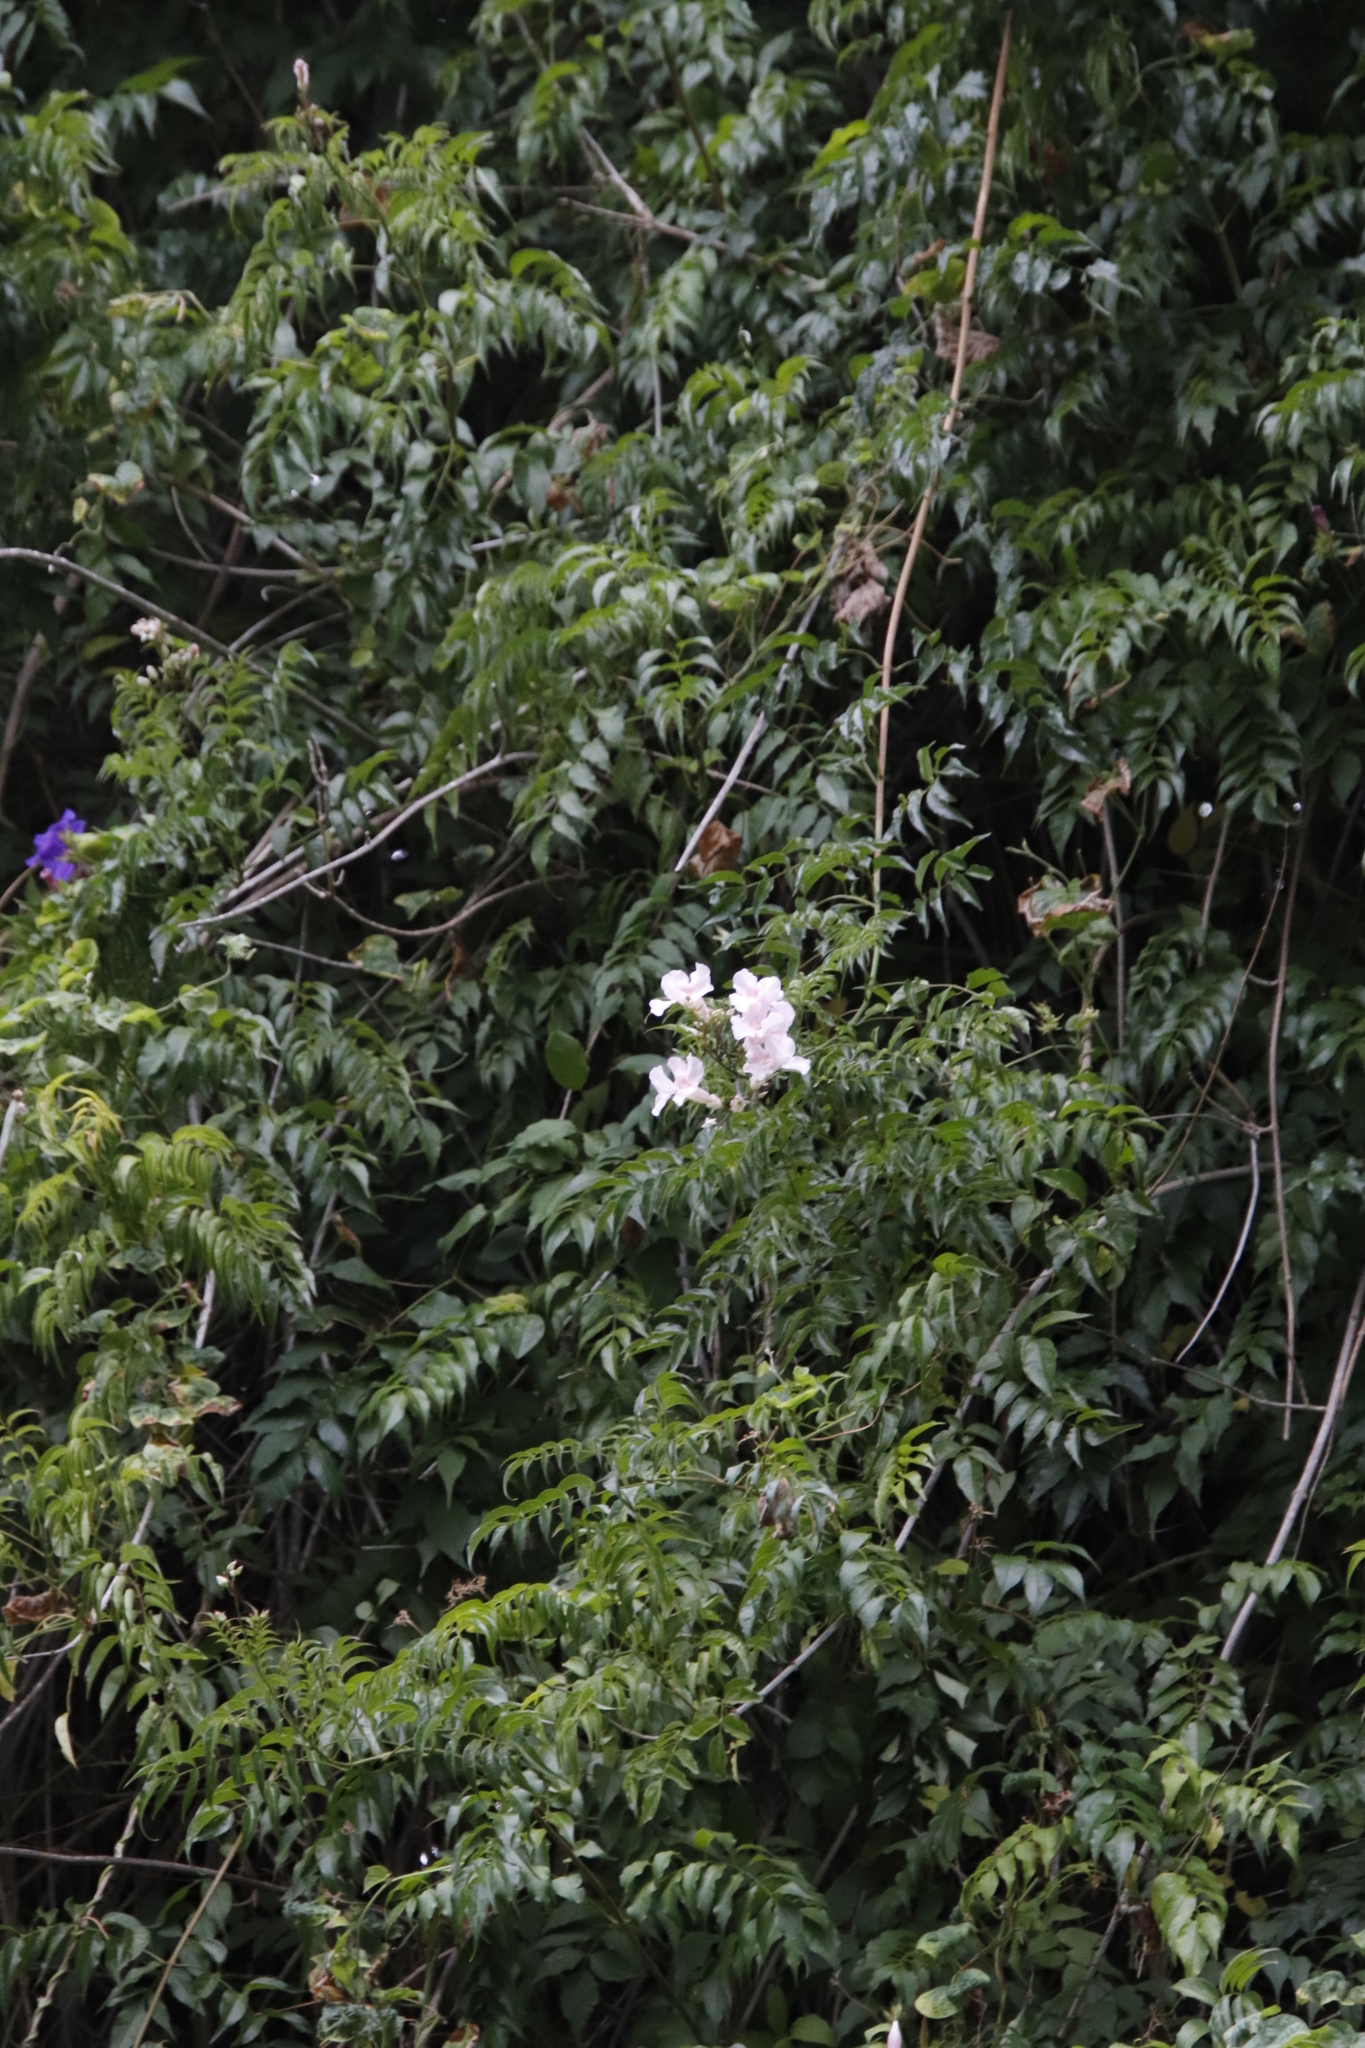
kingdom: Plantae
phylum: Tracheophyta
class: Magnoliopsida
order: Lamiales
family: Bignoniaceae
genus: Podranea
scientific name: Podranea ricasoliana
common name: Zimbabwe creeper
